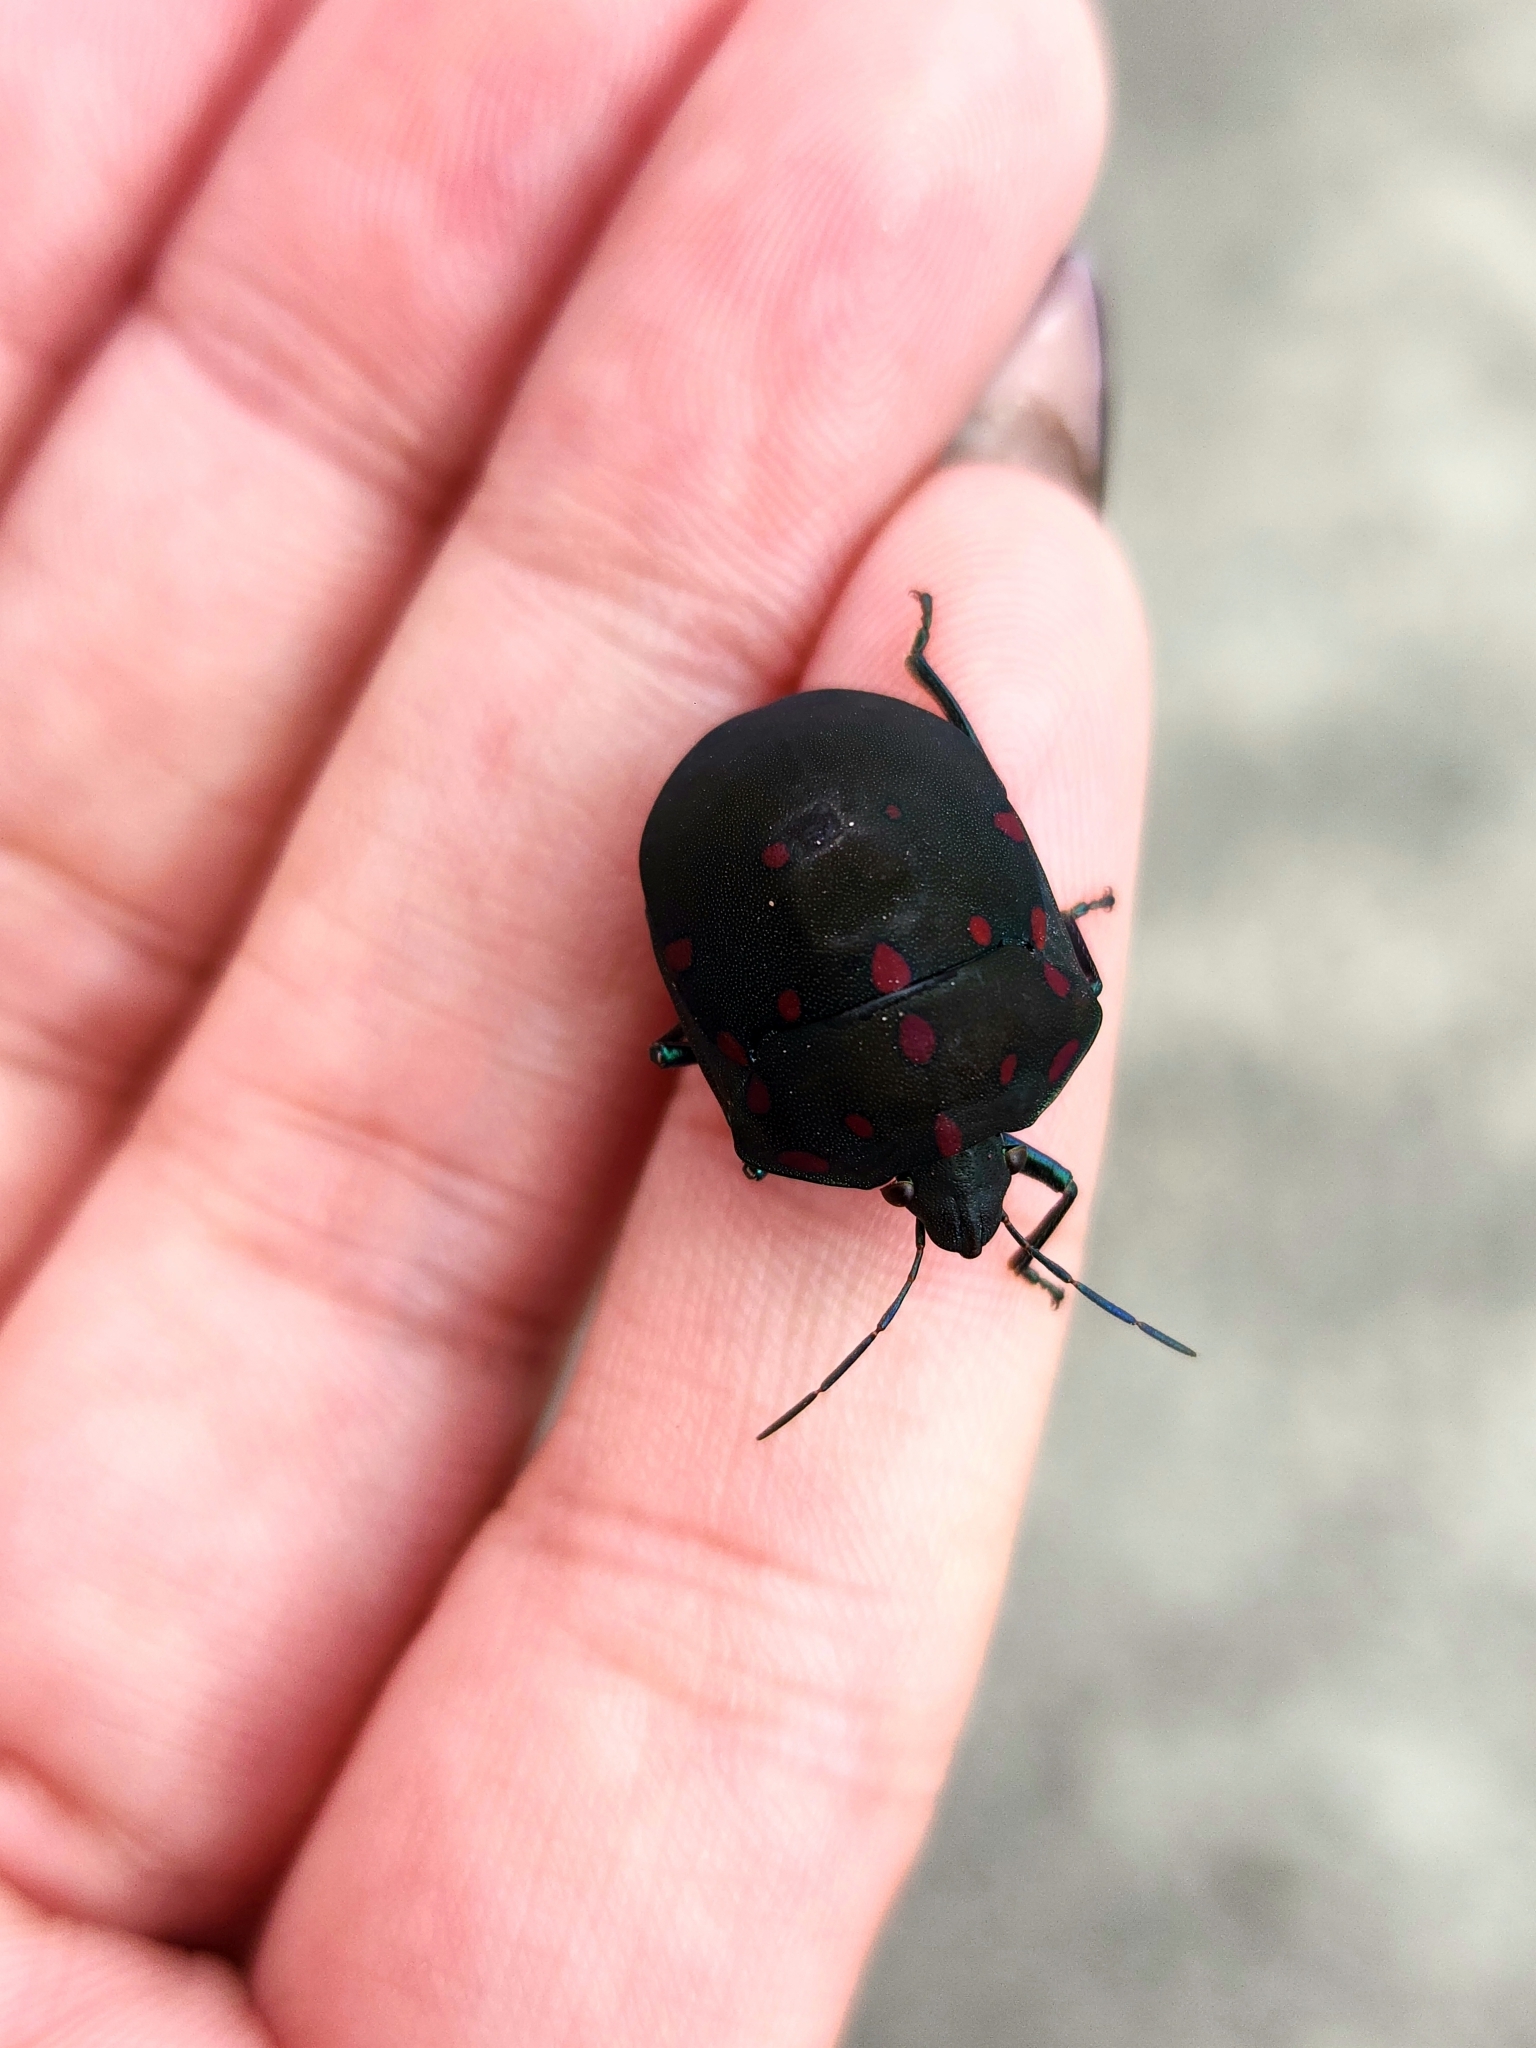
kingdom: Animalia
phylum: Arthropoda
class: Insecta
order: Hemiptera
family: Scutelleridae
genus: Pachycoris
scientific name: Pachycoris torridus
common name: Torrid jewel bug
